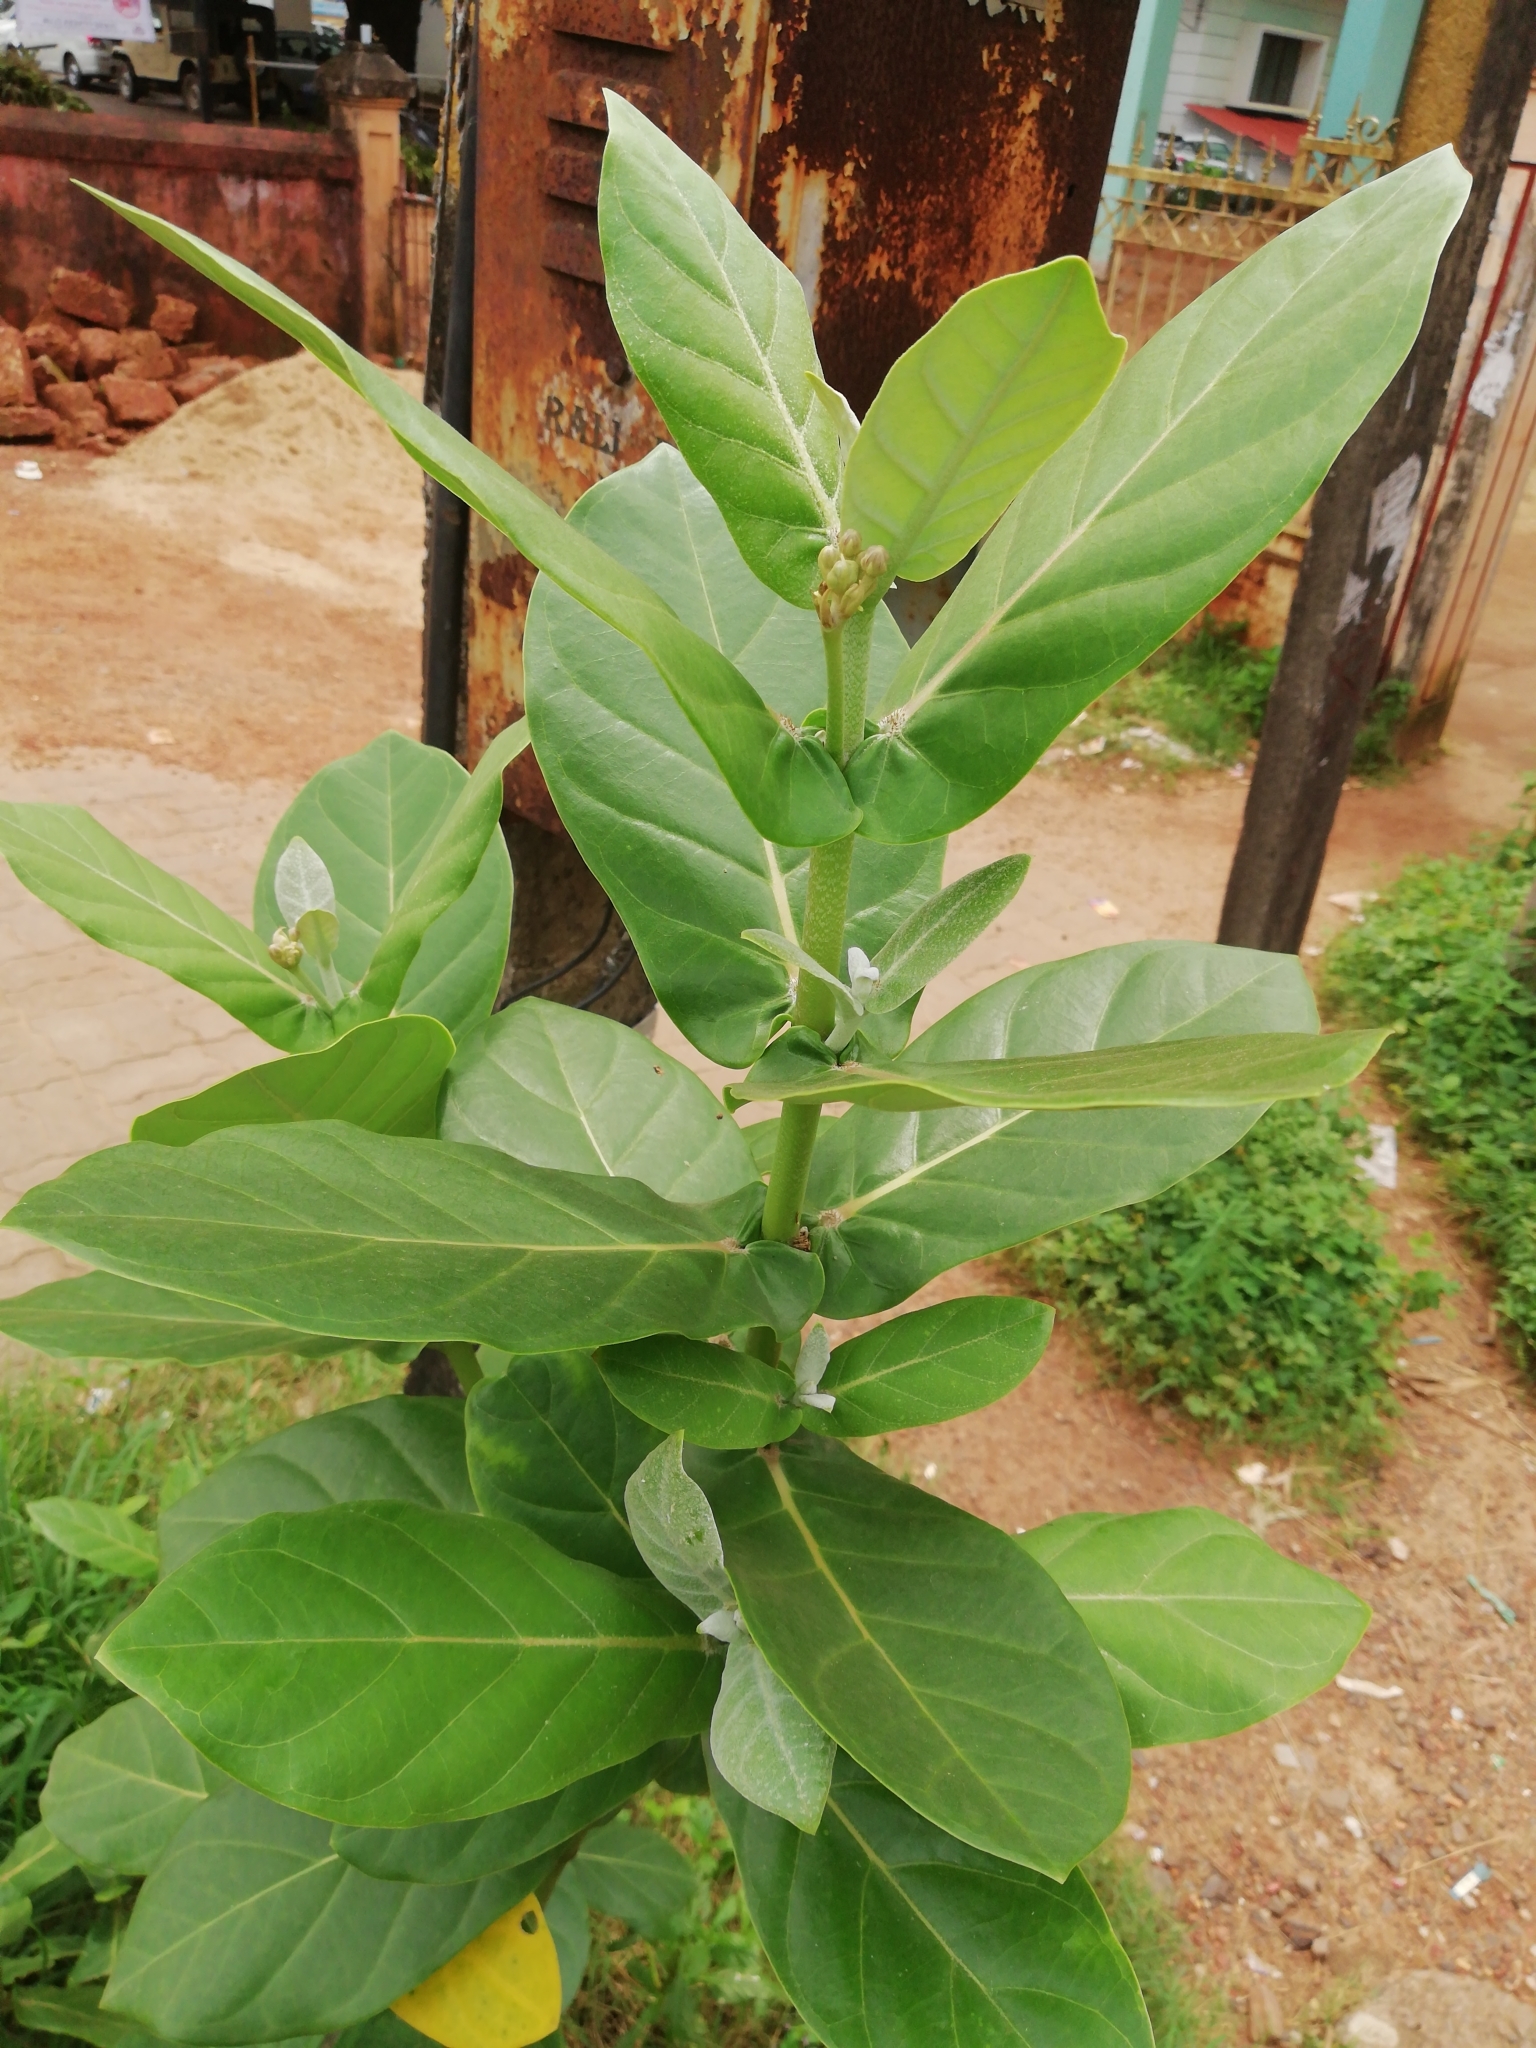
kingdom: Plantae
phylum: Tracheophyta
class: Magnoliopsida
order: Gentianales
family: Apocynaceae
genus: Calotropis
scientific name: Calotropis gigantea
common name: Crown flower
